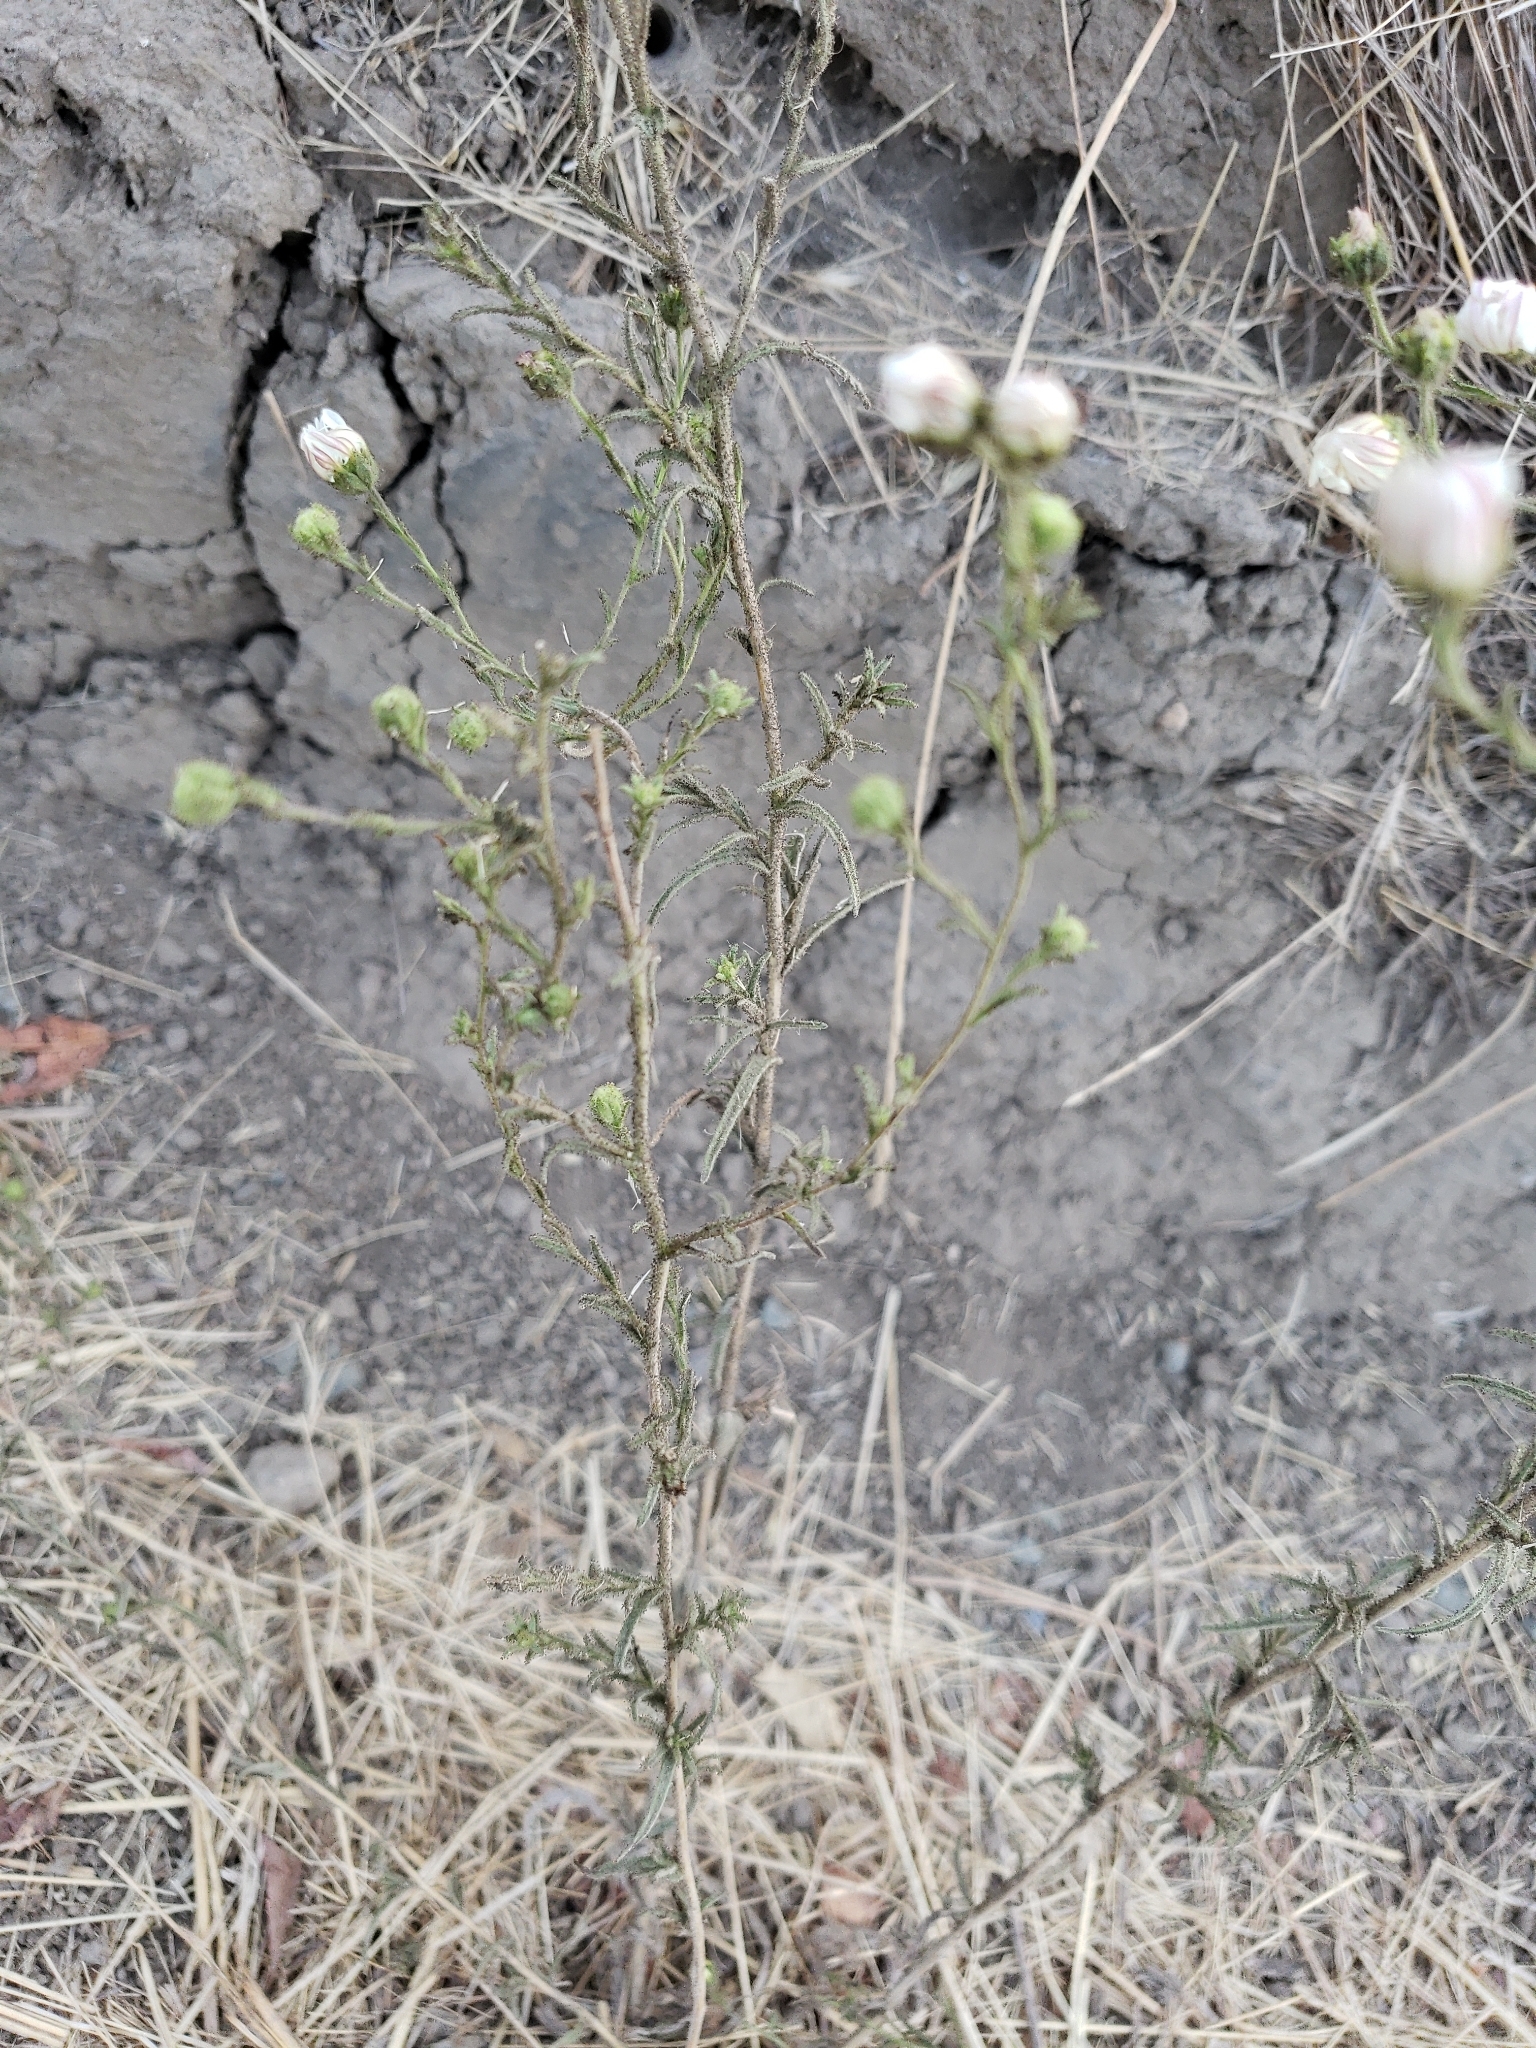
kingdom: Plantae
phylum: Tracheophyta
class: Magnoliopsida
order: Asterales
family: Asteraceae
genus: Hemizonia
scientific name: Hemizonia congesta
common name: Hayfield tarweed
